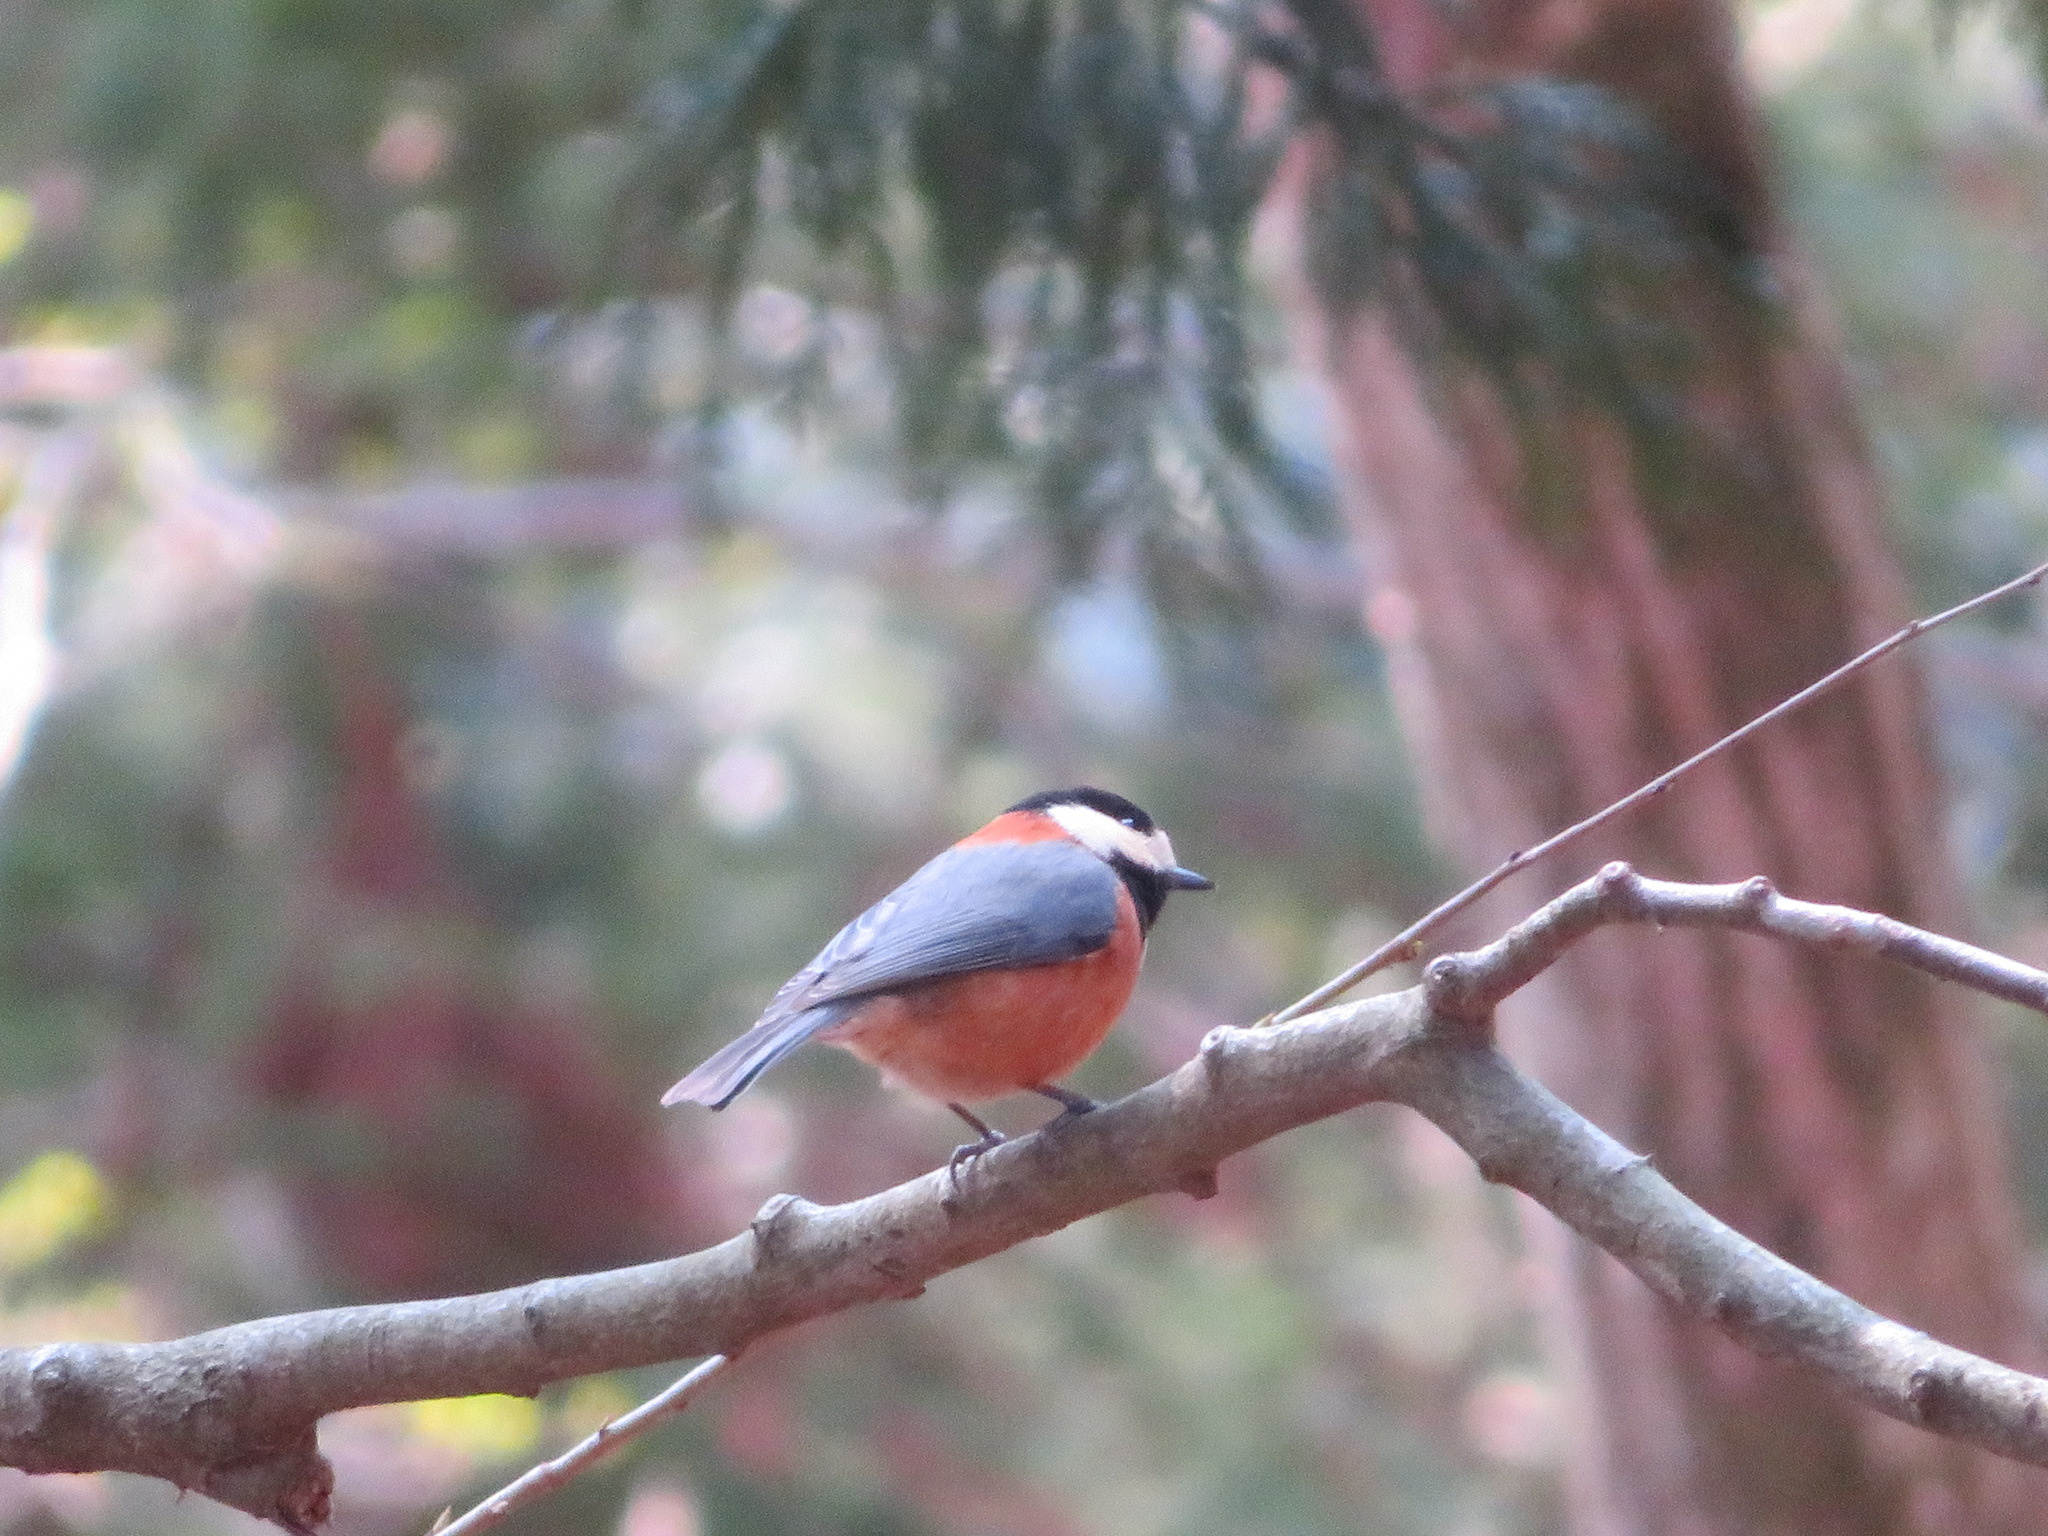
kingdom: Animalia
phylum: Chordata
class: Aves
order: Passeriformes
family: Paridae
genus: Poecile
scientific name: Poecile varius
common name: Varied tit
